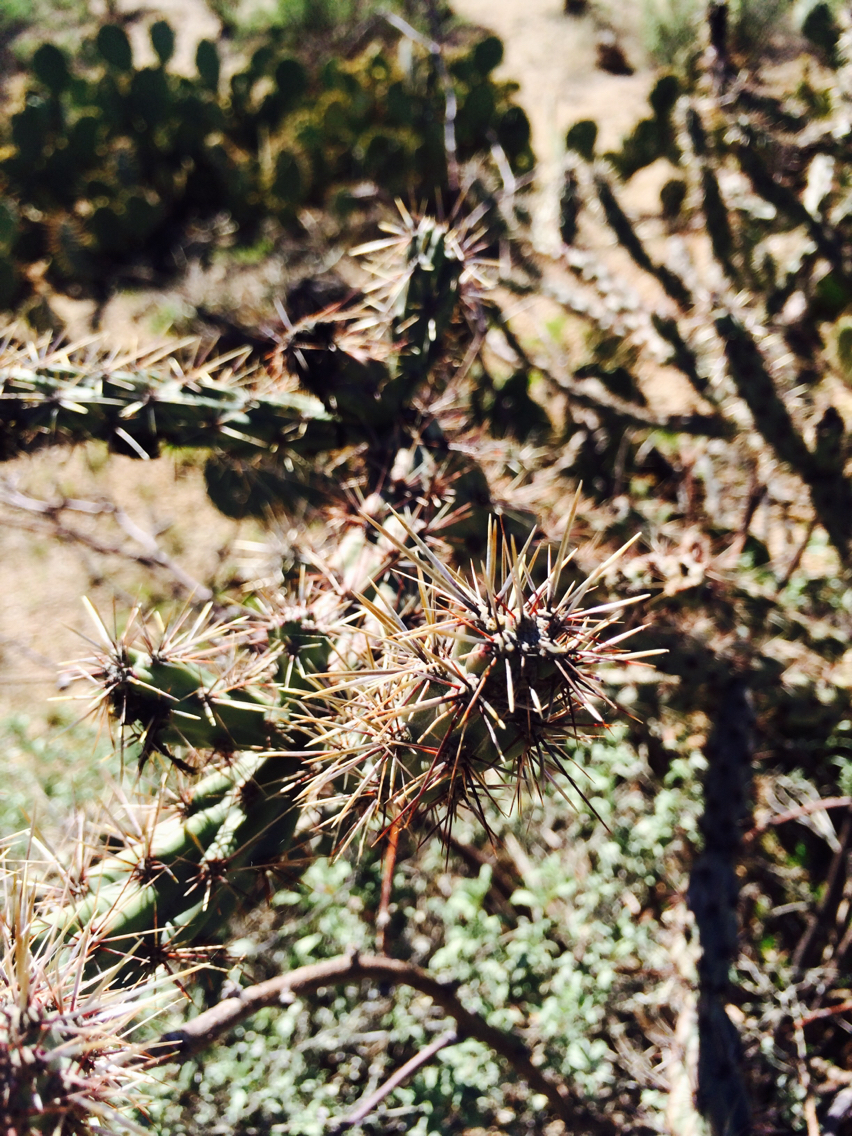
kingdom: Plantae
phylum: Tracheophyta
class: Magnoliopsida
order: Caryophyllales
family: Cactaceae
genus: Cylindropuntia
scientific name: Cylindropuntia acanthocarpa
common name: Buckhorn cholla
